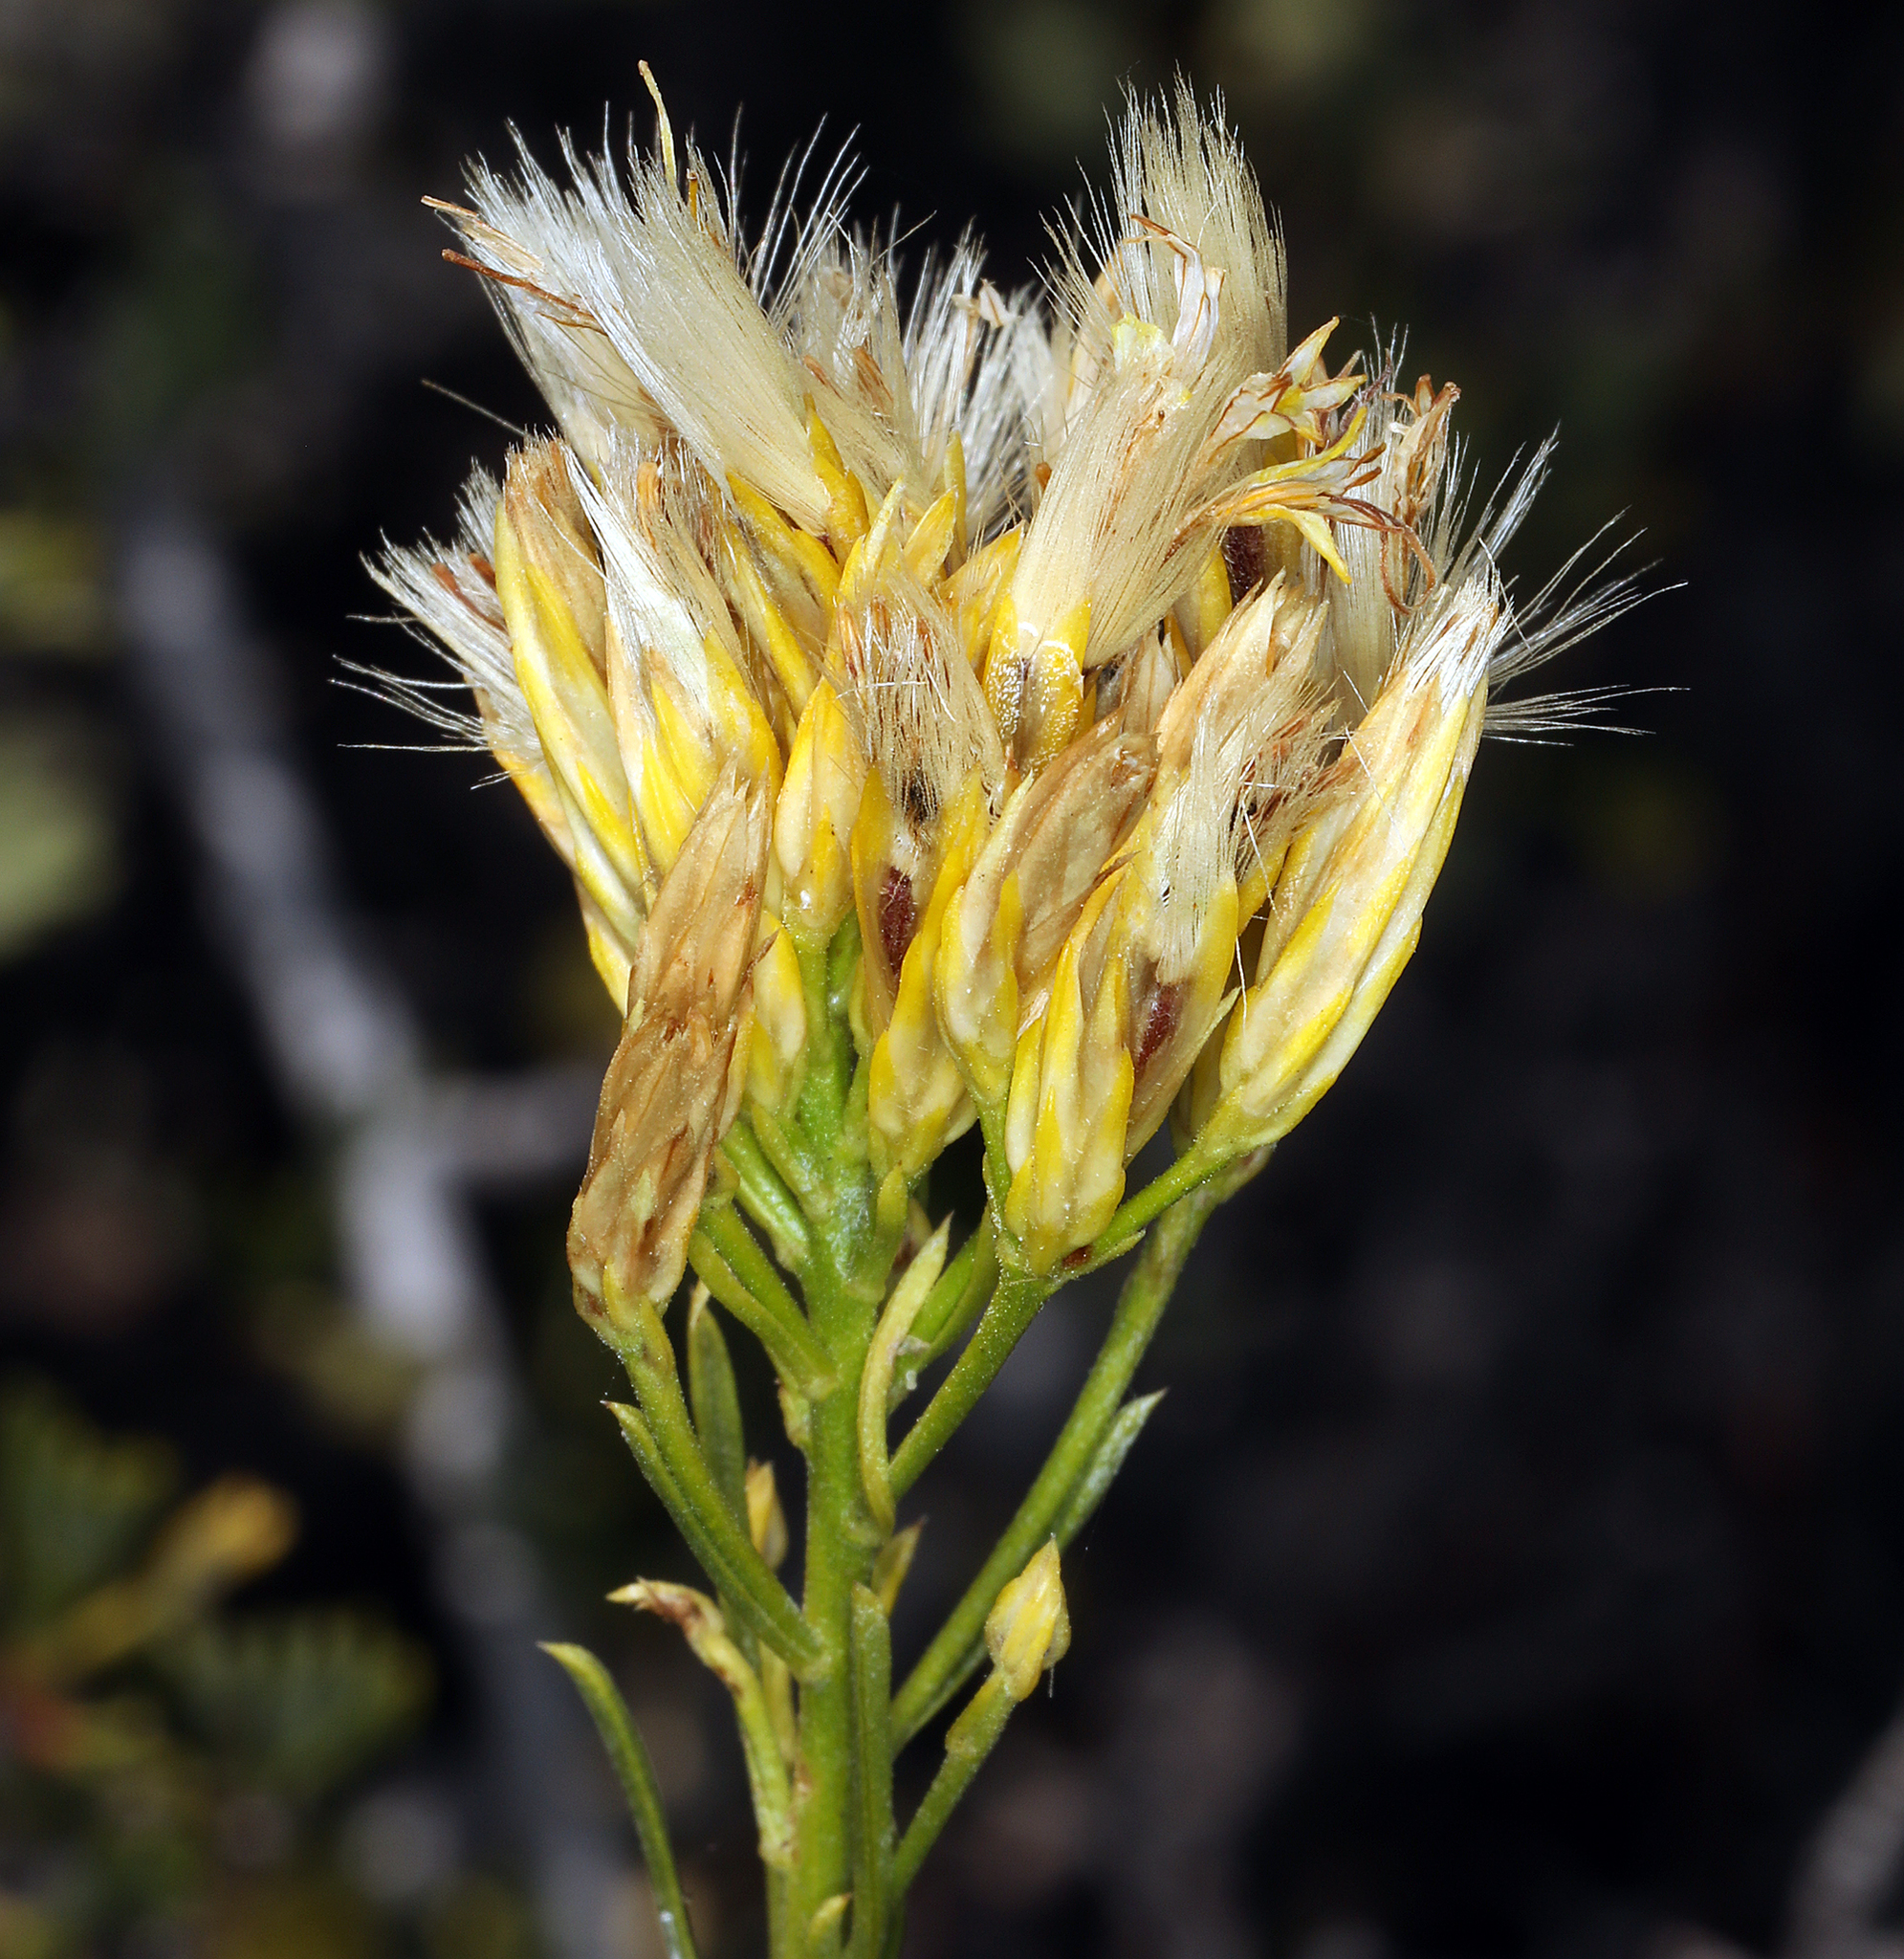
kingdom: Plantae
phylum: Tracheophyta
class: Magnoliopsida
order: Asterales
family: Asteraceae
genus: Ericameria
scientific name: Ericameria nauseosa
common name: Rubber rabbitbrush
